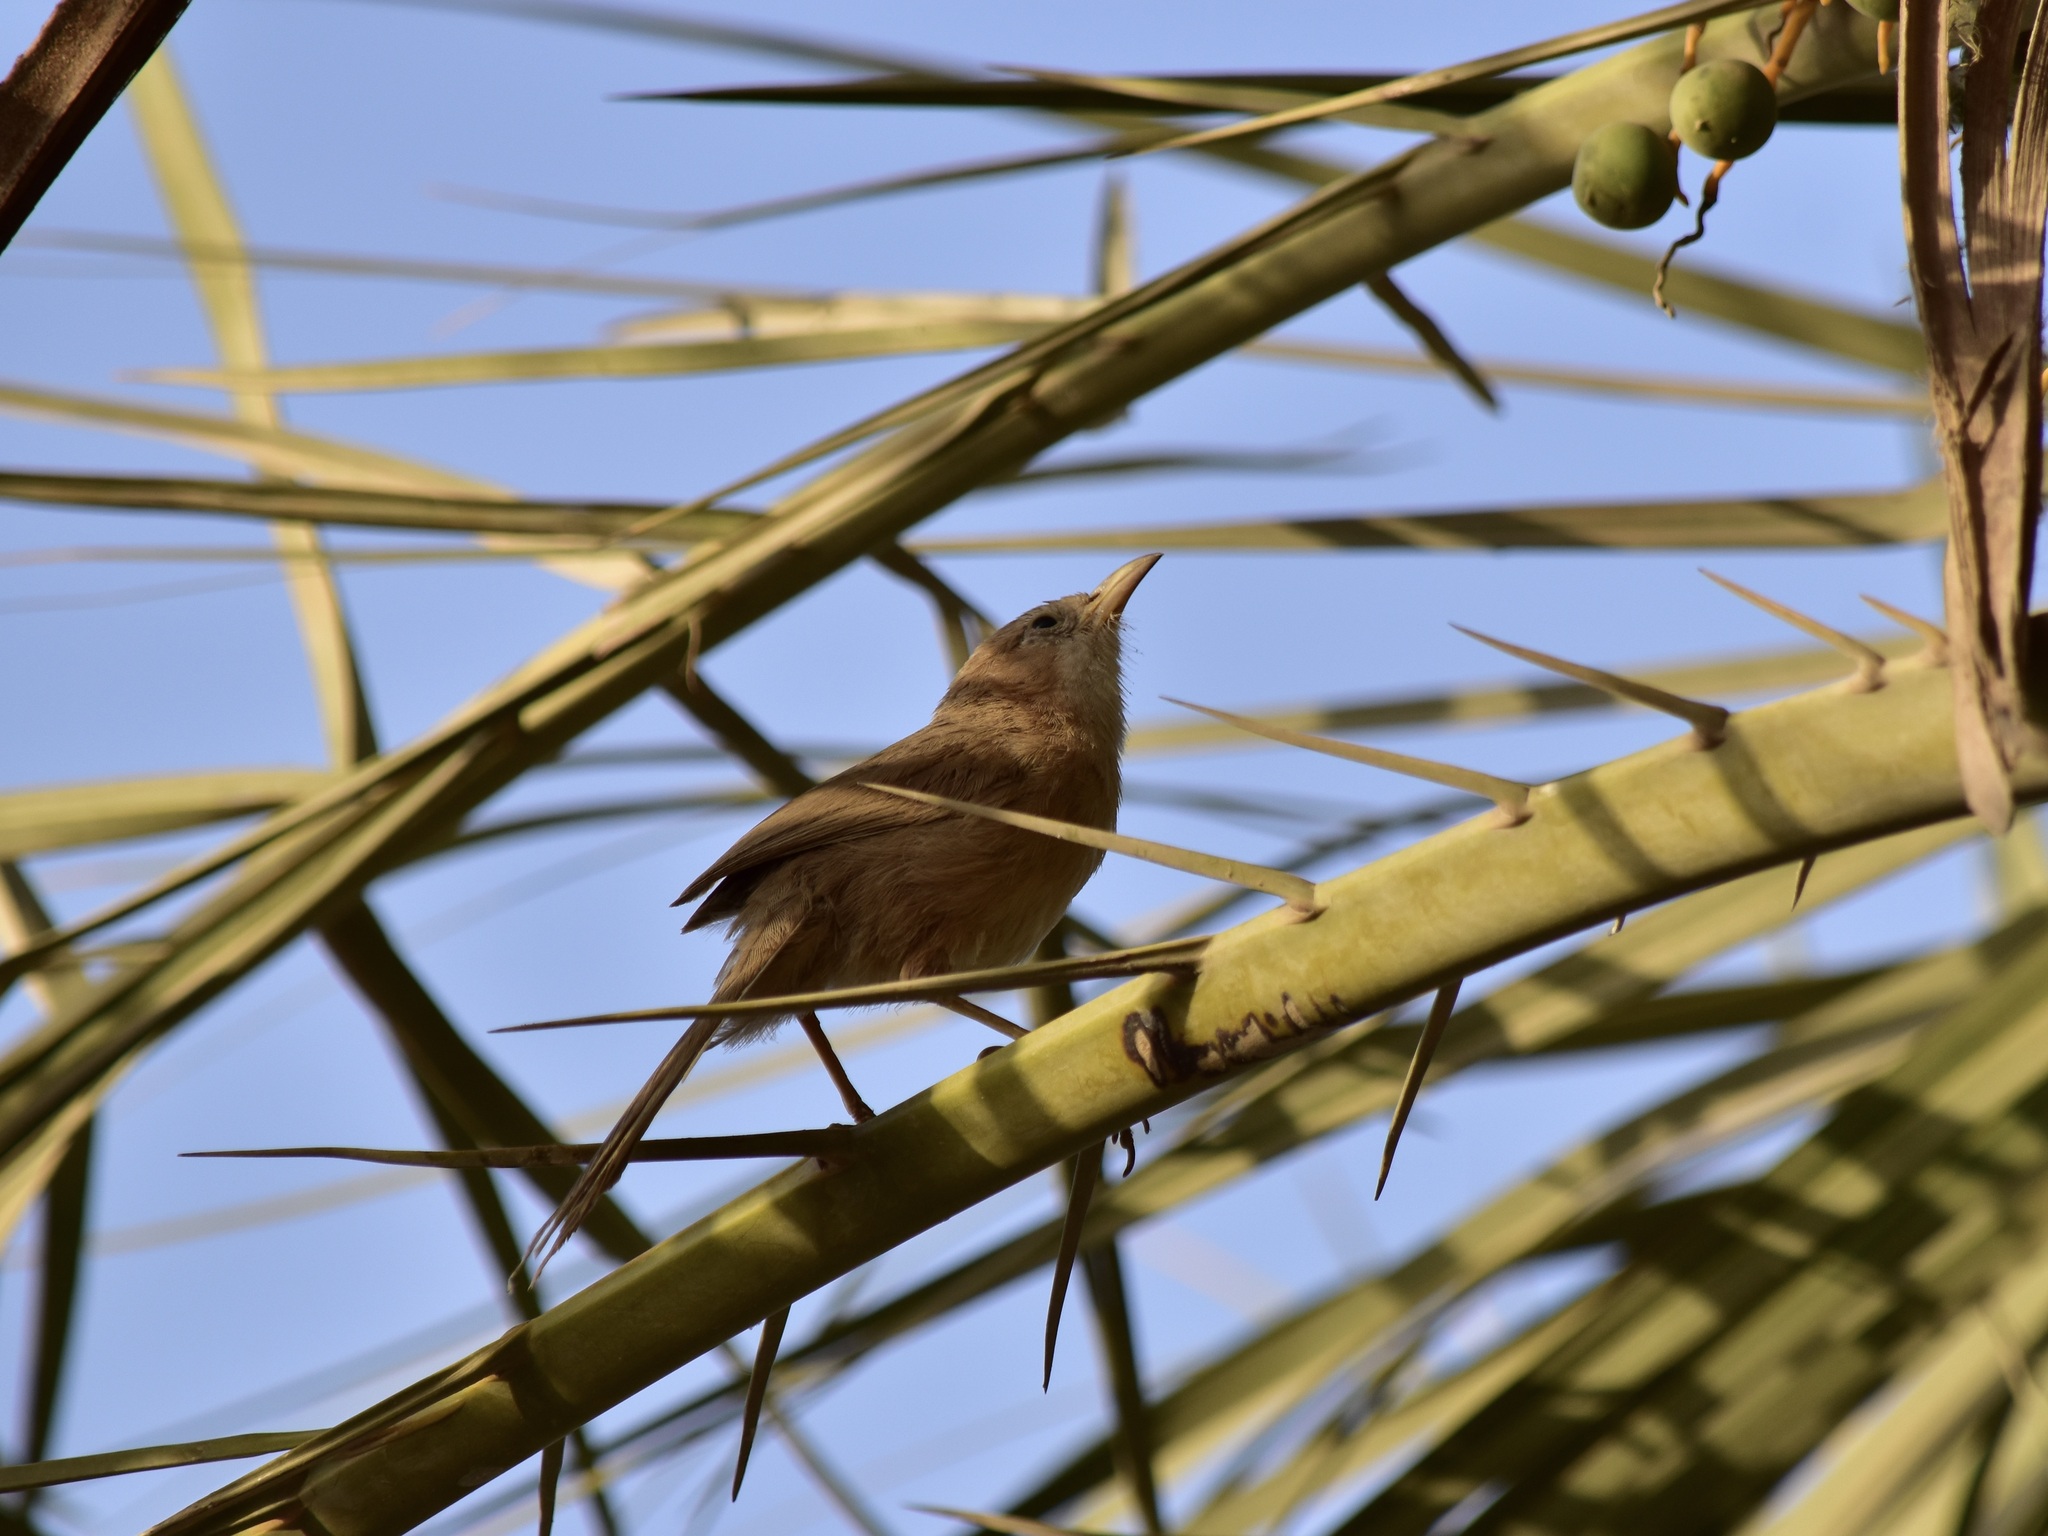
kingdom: Animalia
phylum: Chordata
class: Aves
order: Passeriformes
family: Leiothrichidae
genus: Turdoides
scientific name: Turdoides altirostris
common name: Iraq babbler
